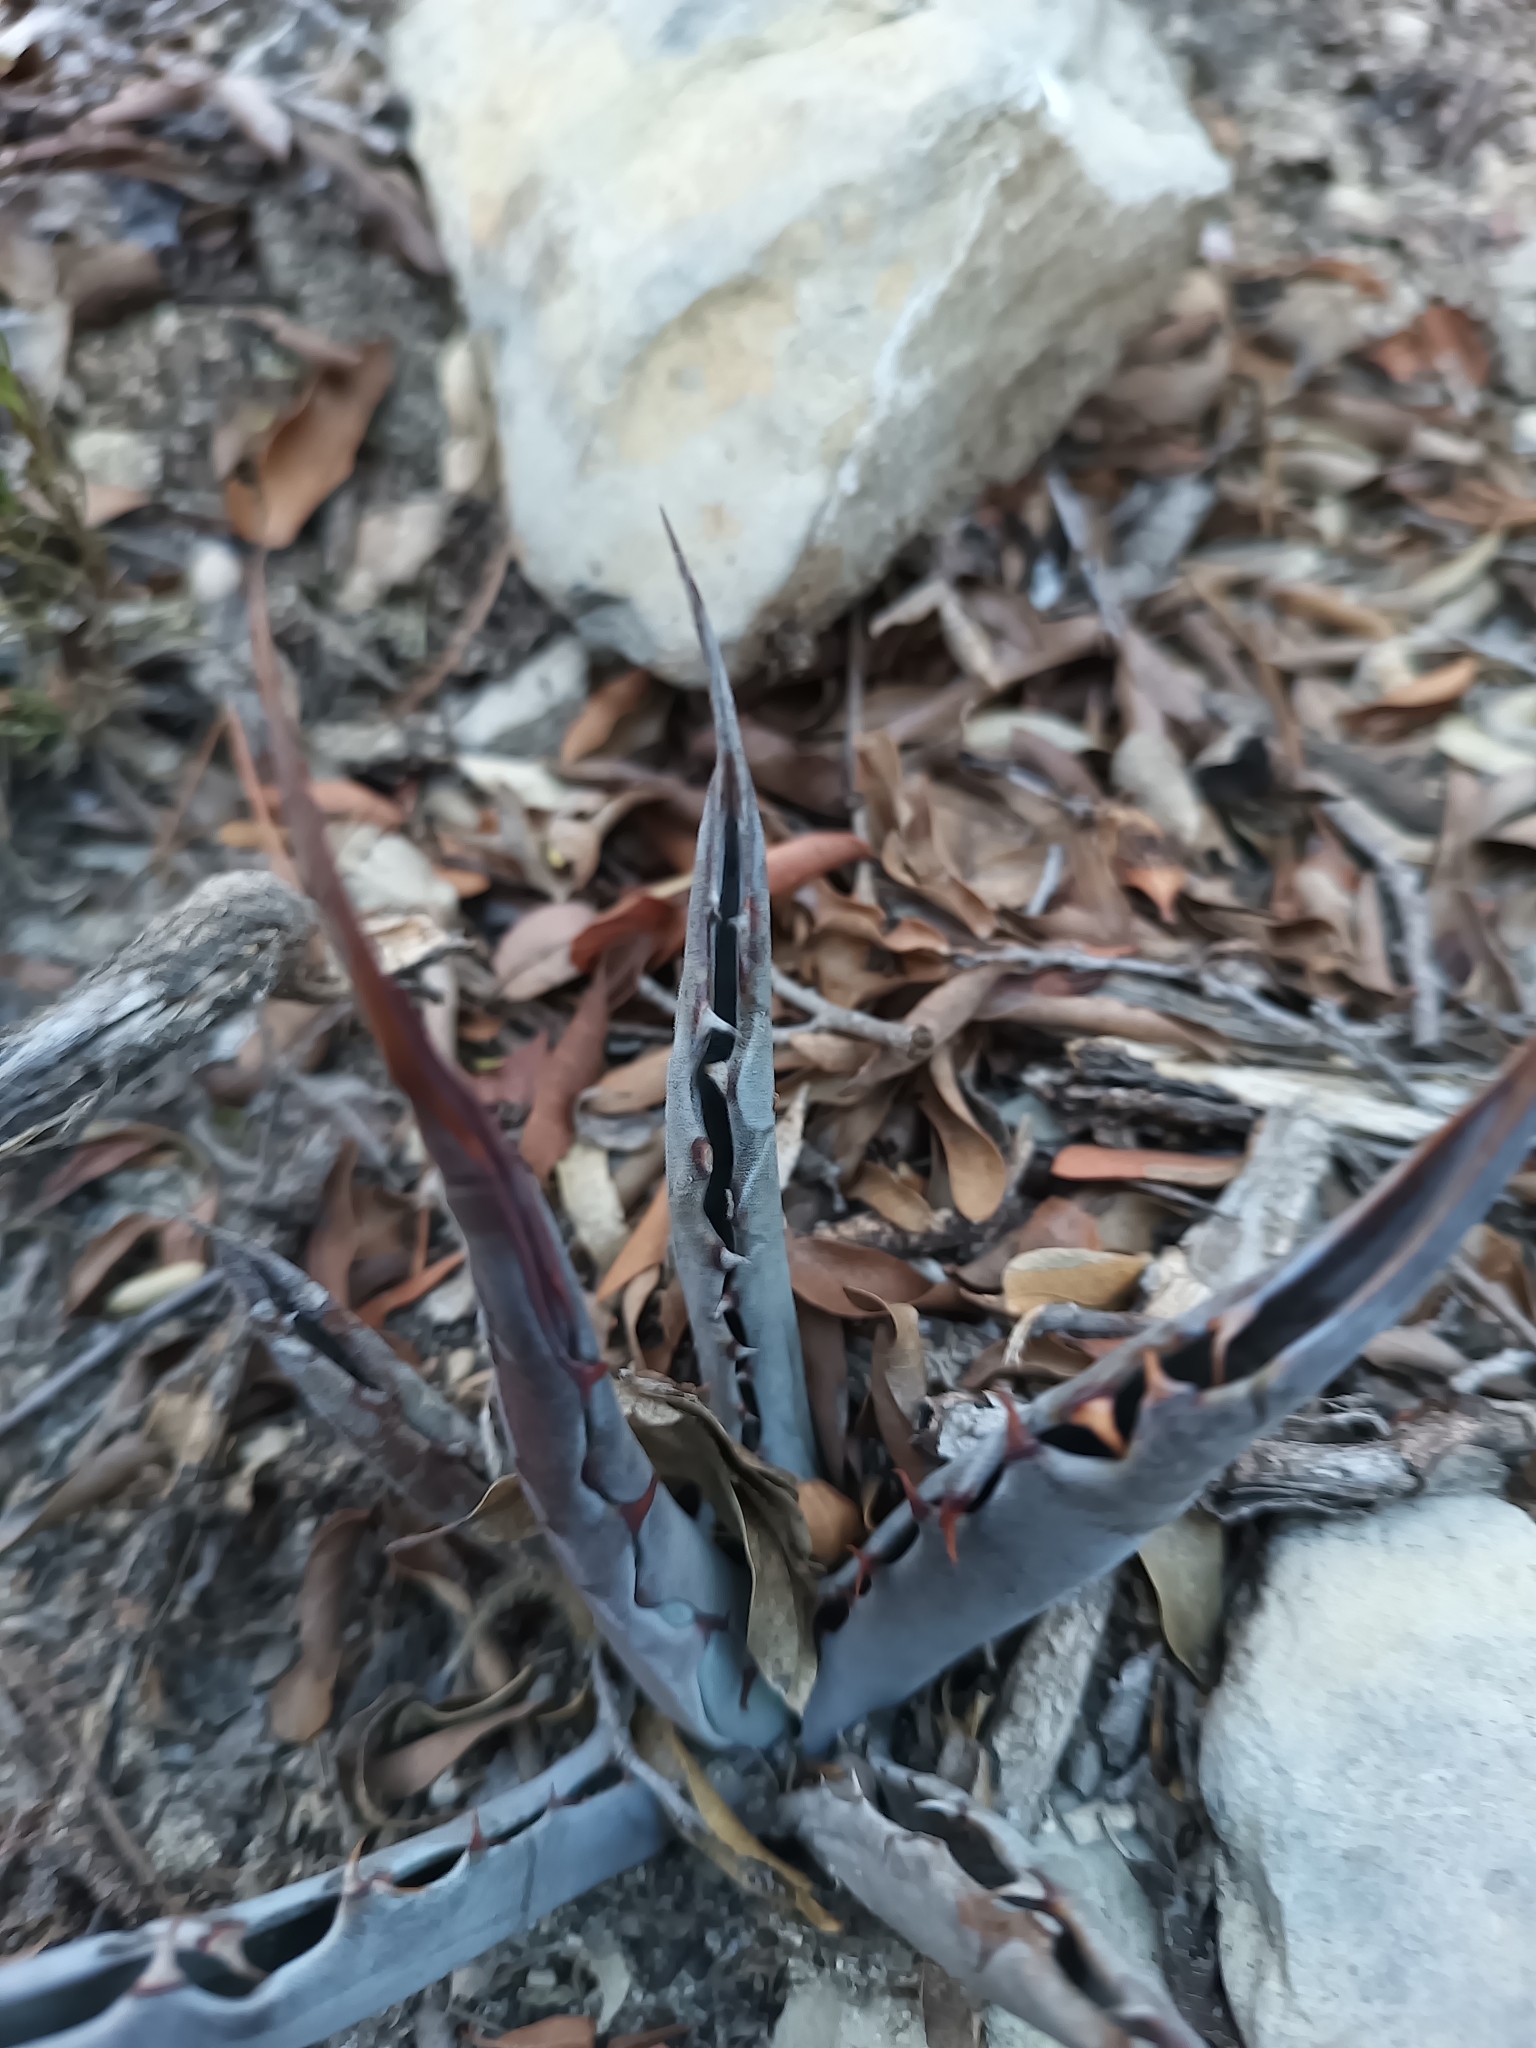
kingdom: Plantae
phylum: Tracheophyta
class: Liliopsida
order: Asparagales
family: Asparagaceae
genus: Agave
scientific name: Agave asperrima
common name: Rough agave
